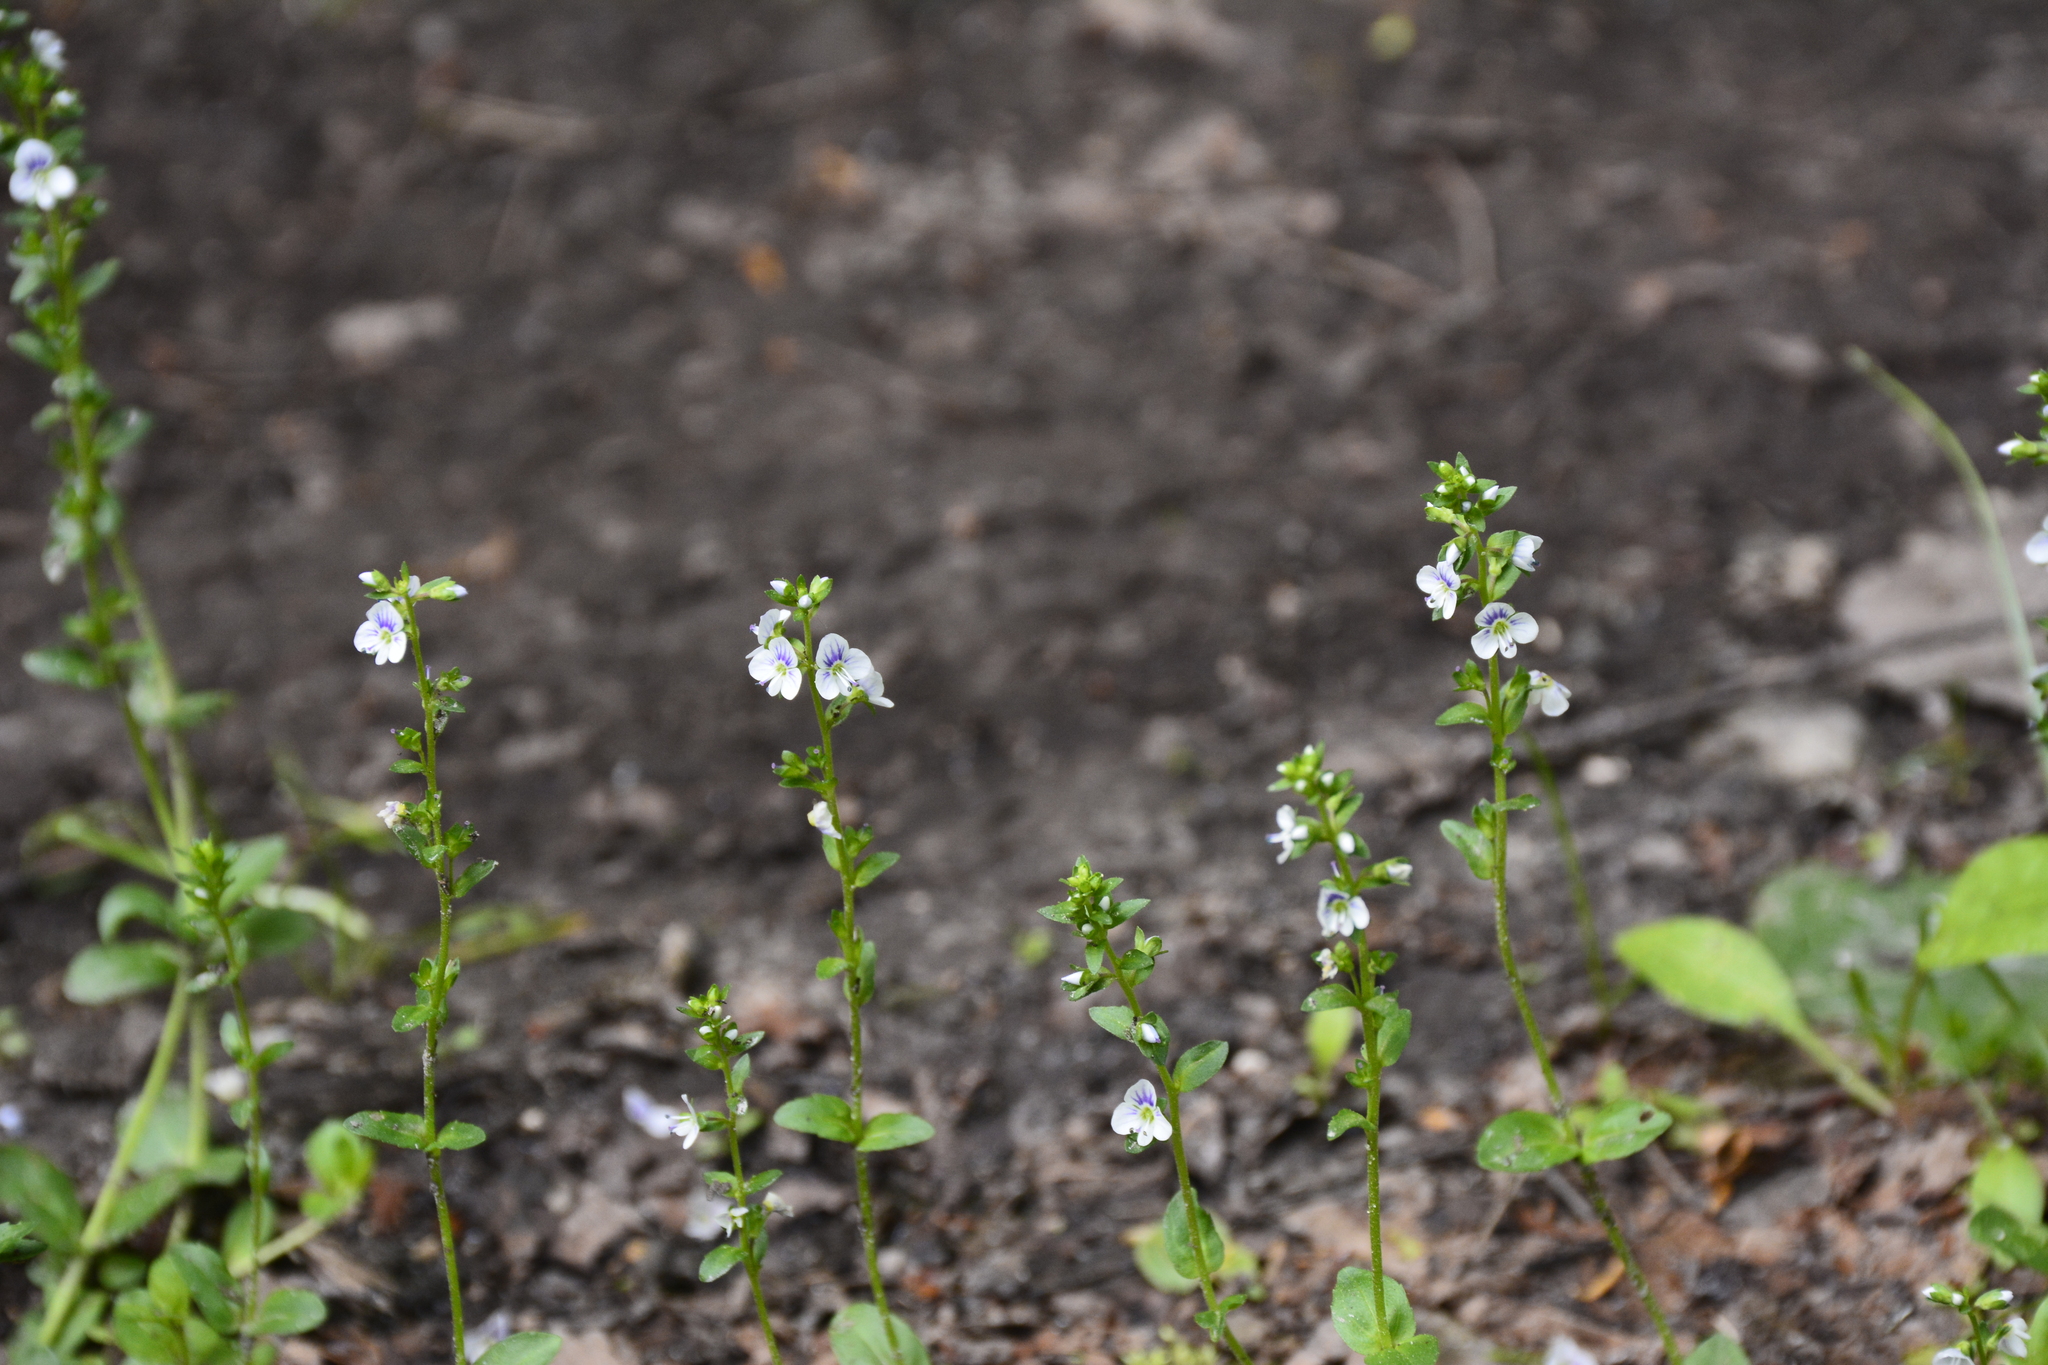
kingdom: Plantae
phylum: Tracheophyta
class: Magnoliopsida
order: Lamiales
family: Plantaginaceae
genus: Veronica
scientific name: Veronica serpyllifolia
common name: Thyme-leaved speedwell
